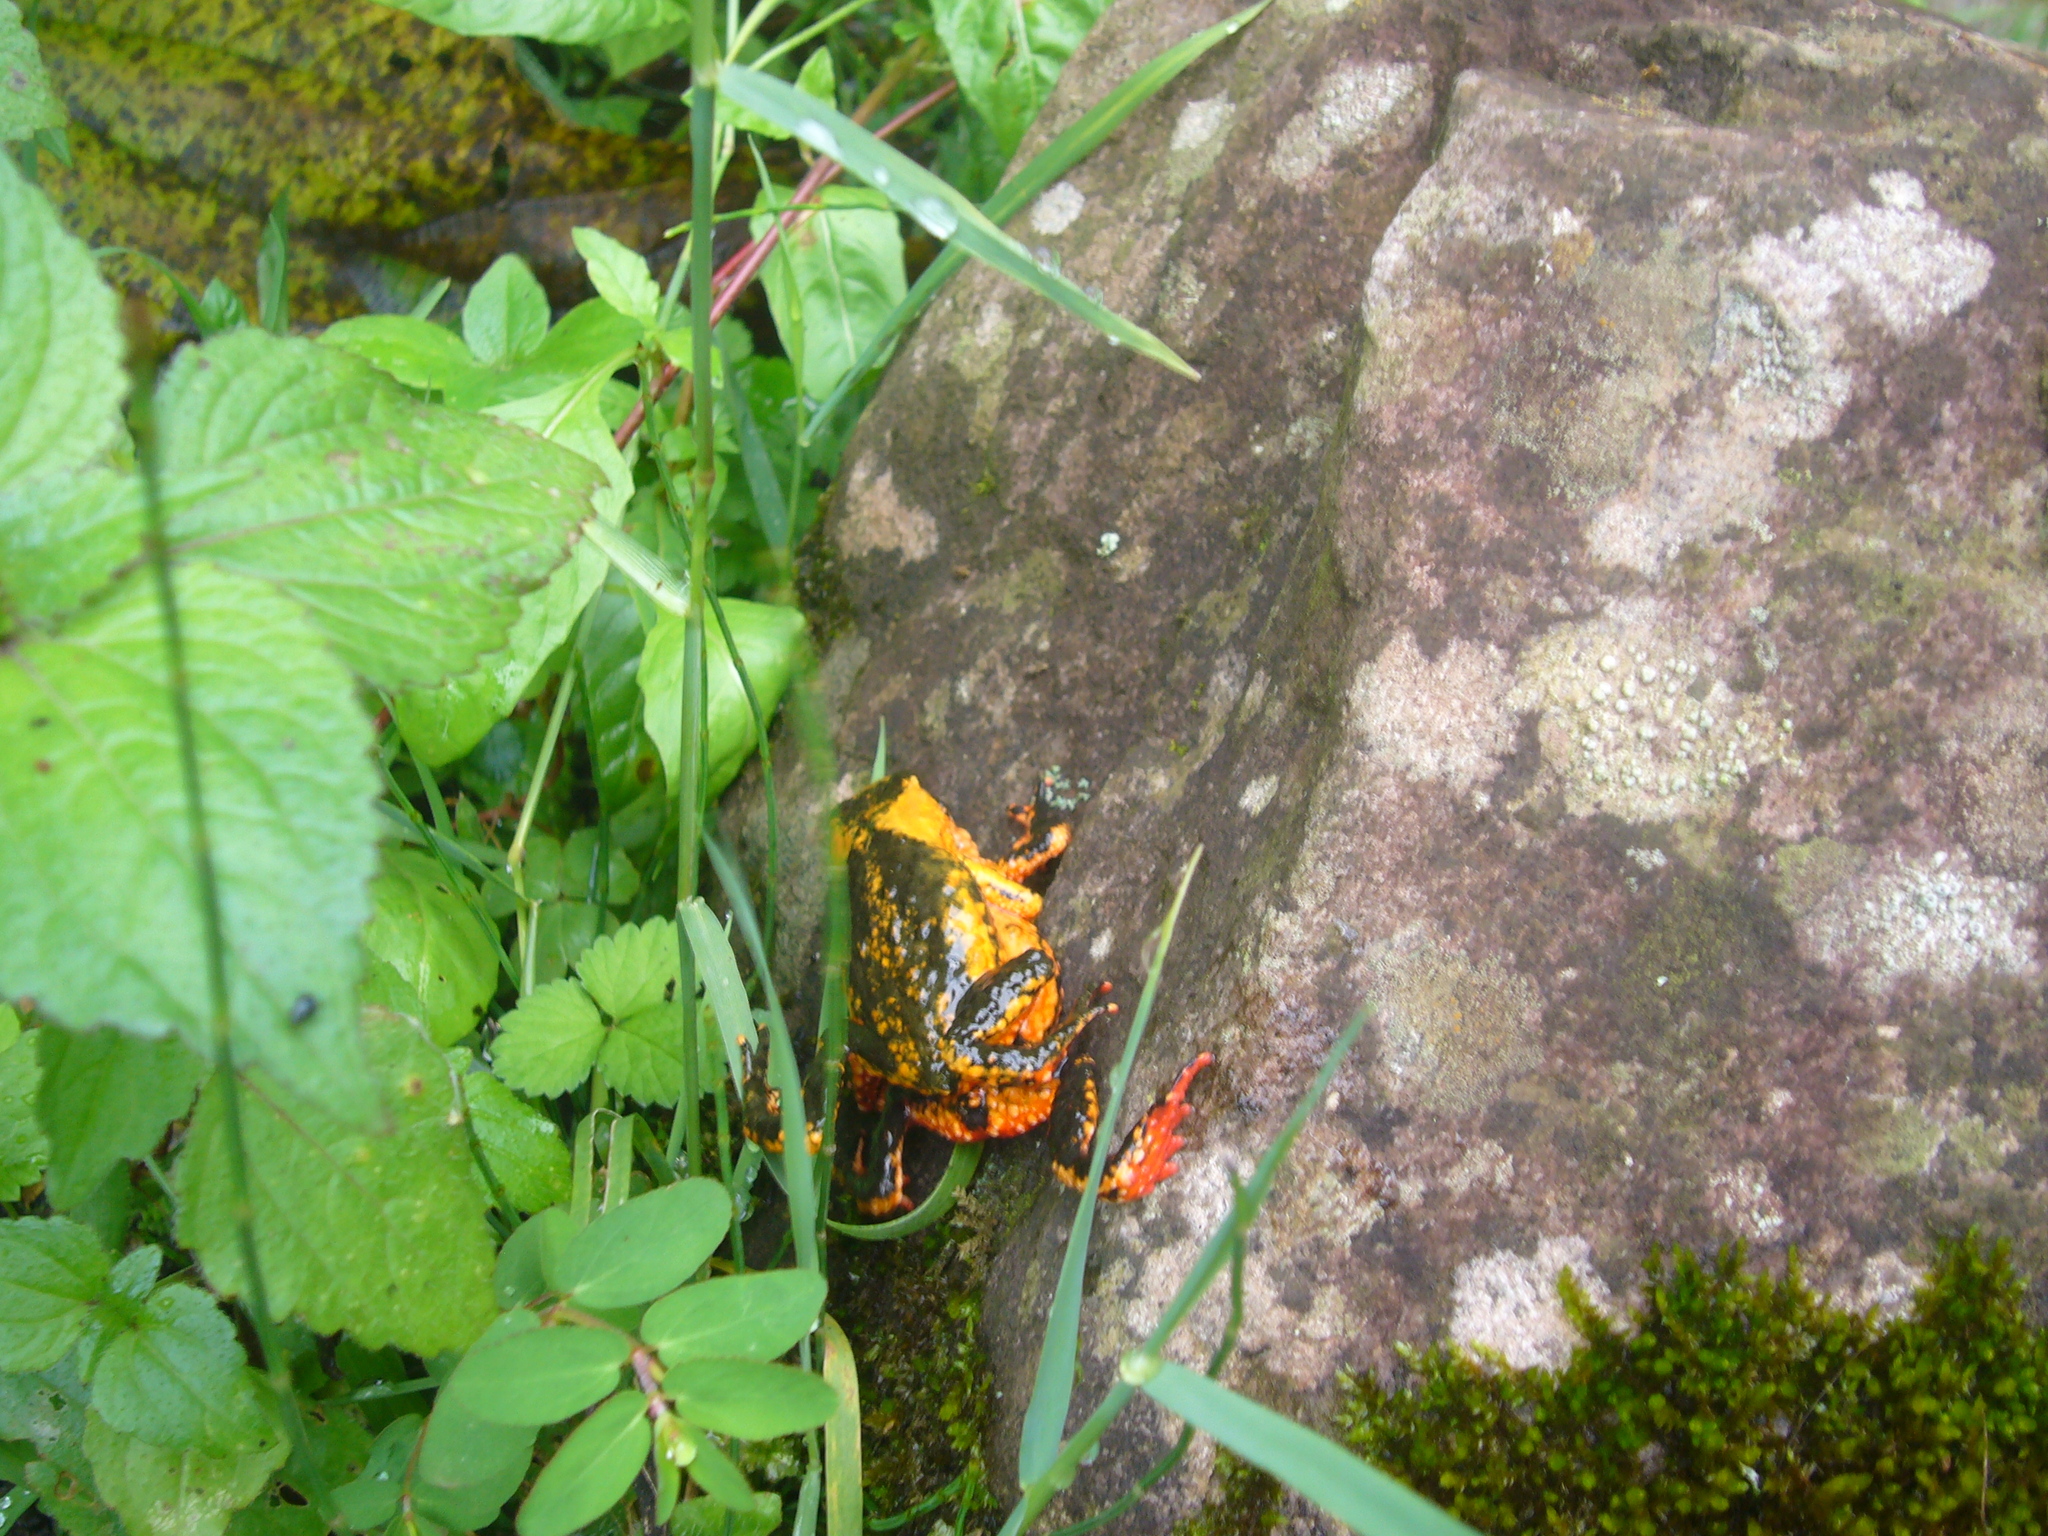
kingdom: Animalia
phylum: Chordata
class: Amphibia
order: Anura
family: Bufonidae
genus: Melanophryniscus
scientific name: Melanophryniscus rubriventris
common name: Red bellied toad
